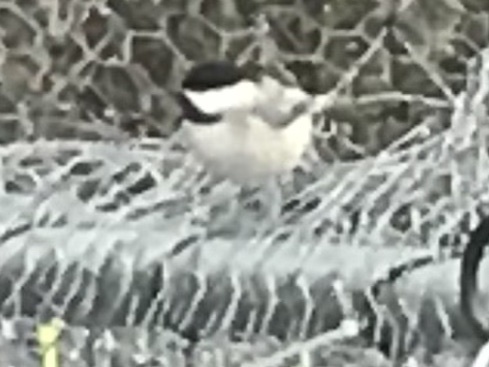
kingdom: Animalia
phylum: Chordata
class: Aves
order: Passeriformes
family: Paridae
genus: Poecile
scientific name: Poecile carolinensis
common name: Carolina chickadee
